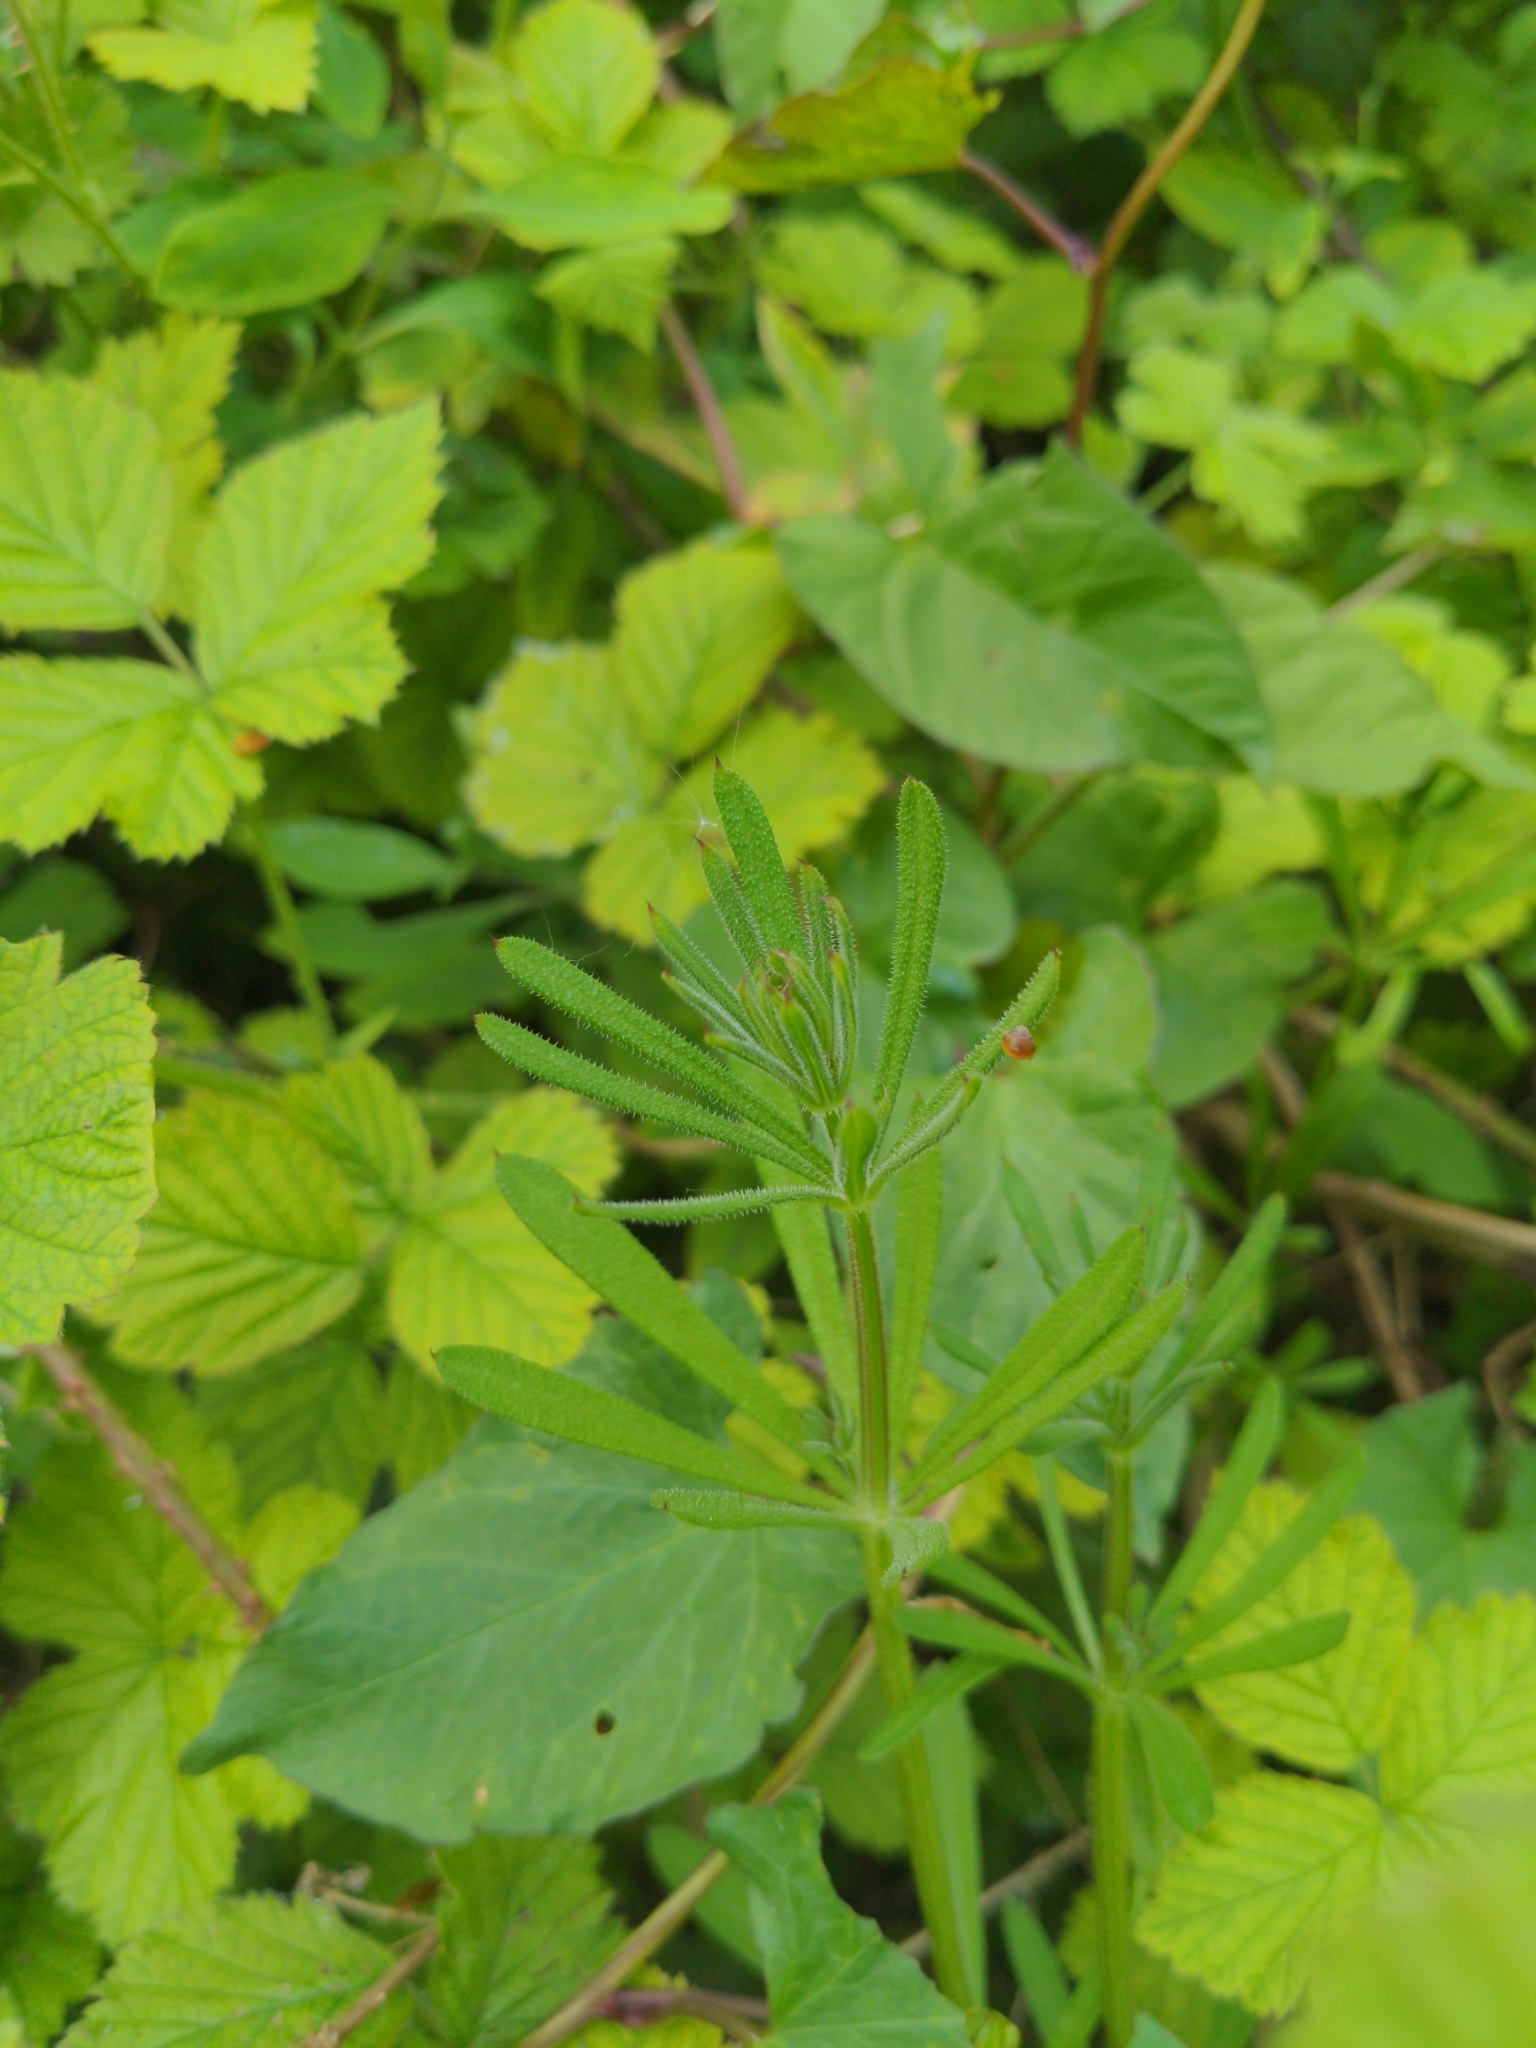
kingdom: Plantae
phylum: Tracheophyta
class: Magnoliopsida
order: Gentianales
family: Rubiaceae
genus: Galium
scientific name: Galium aparine
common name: Cleavers
